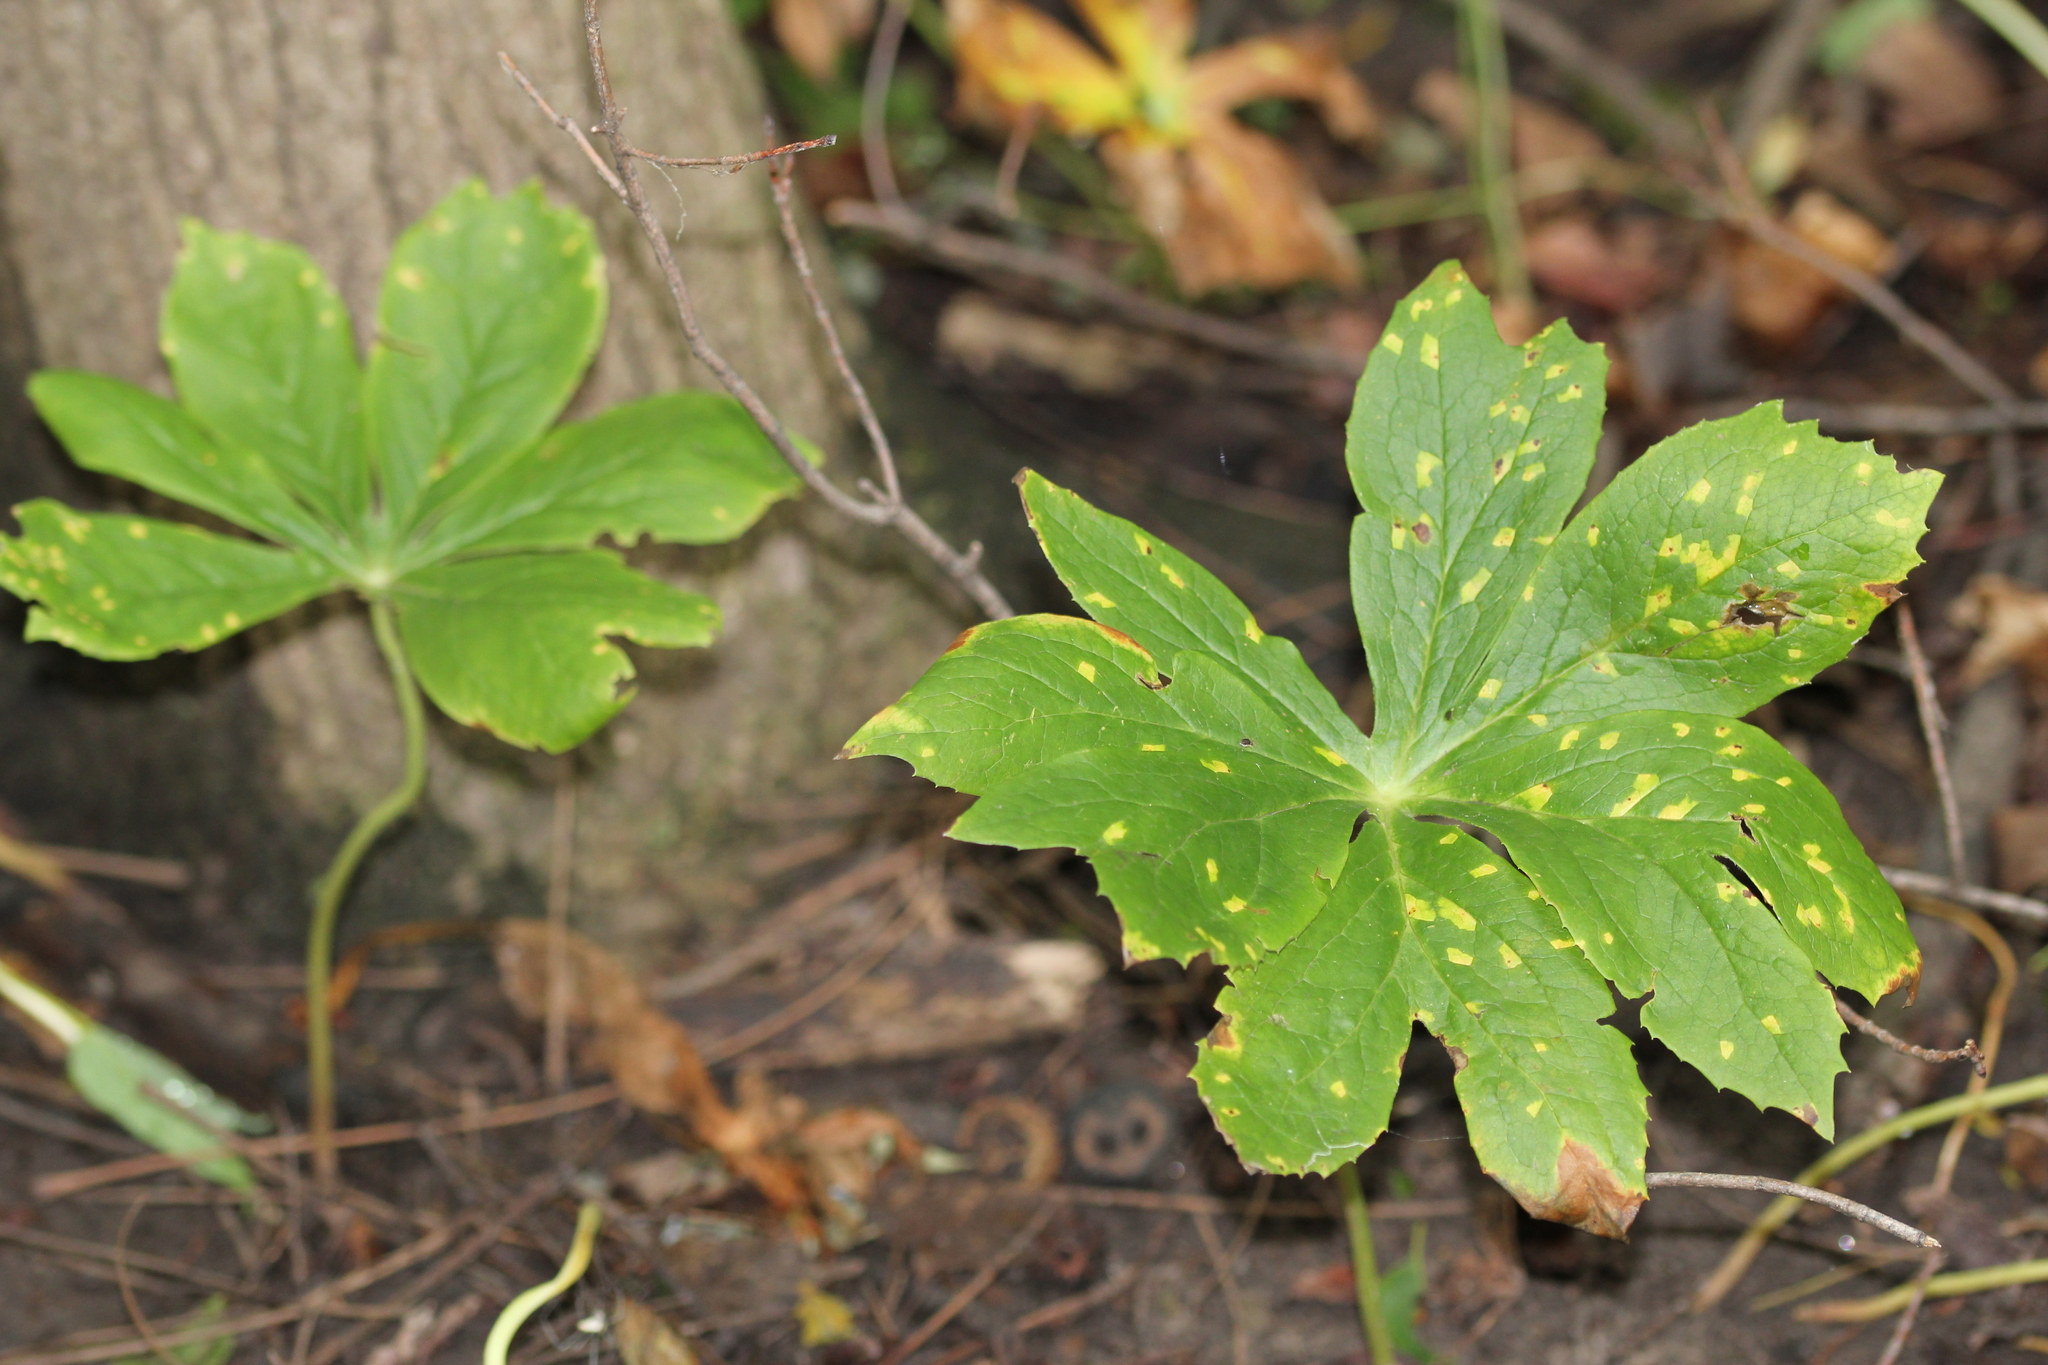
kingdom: Plantae
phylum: Tracheophyta
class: Magnoliopsida
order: Ranunculales
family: Berberidaceae
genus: Podophyllum
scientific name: Podophyllum peltatum
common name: Wild mandrake
